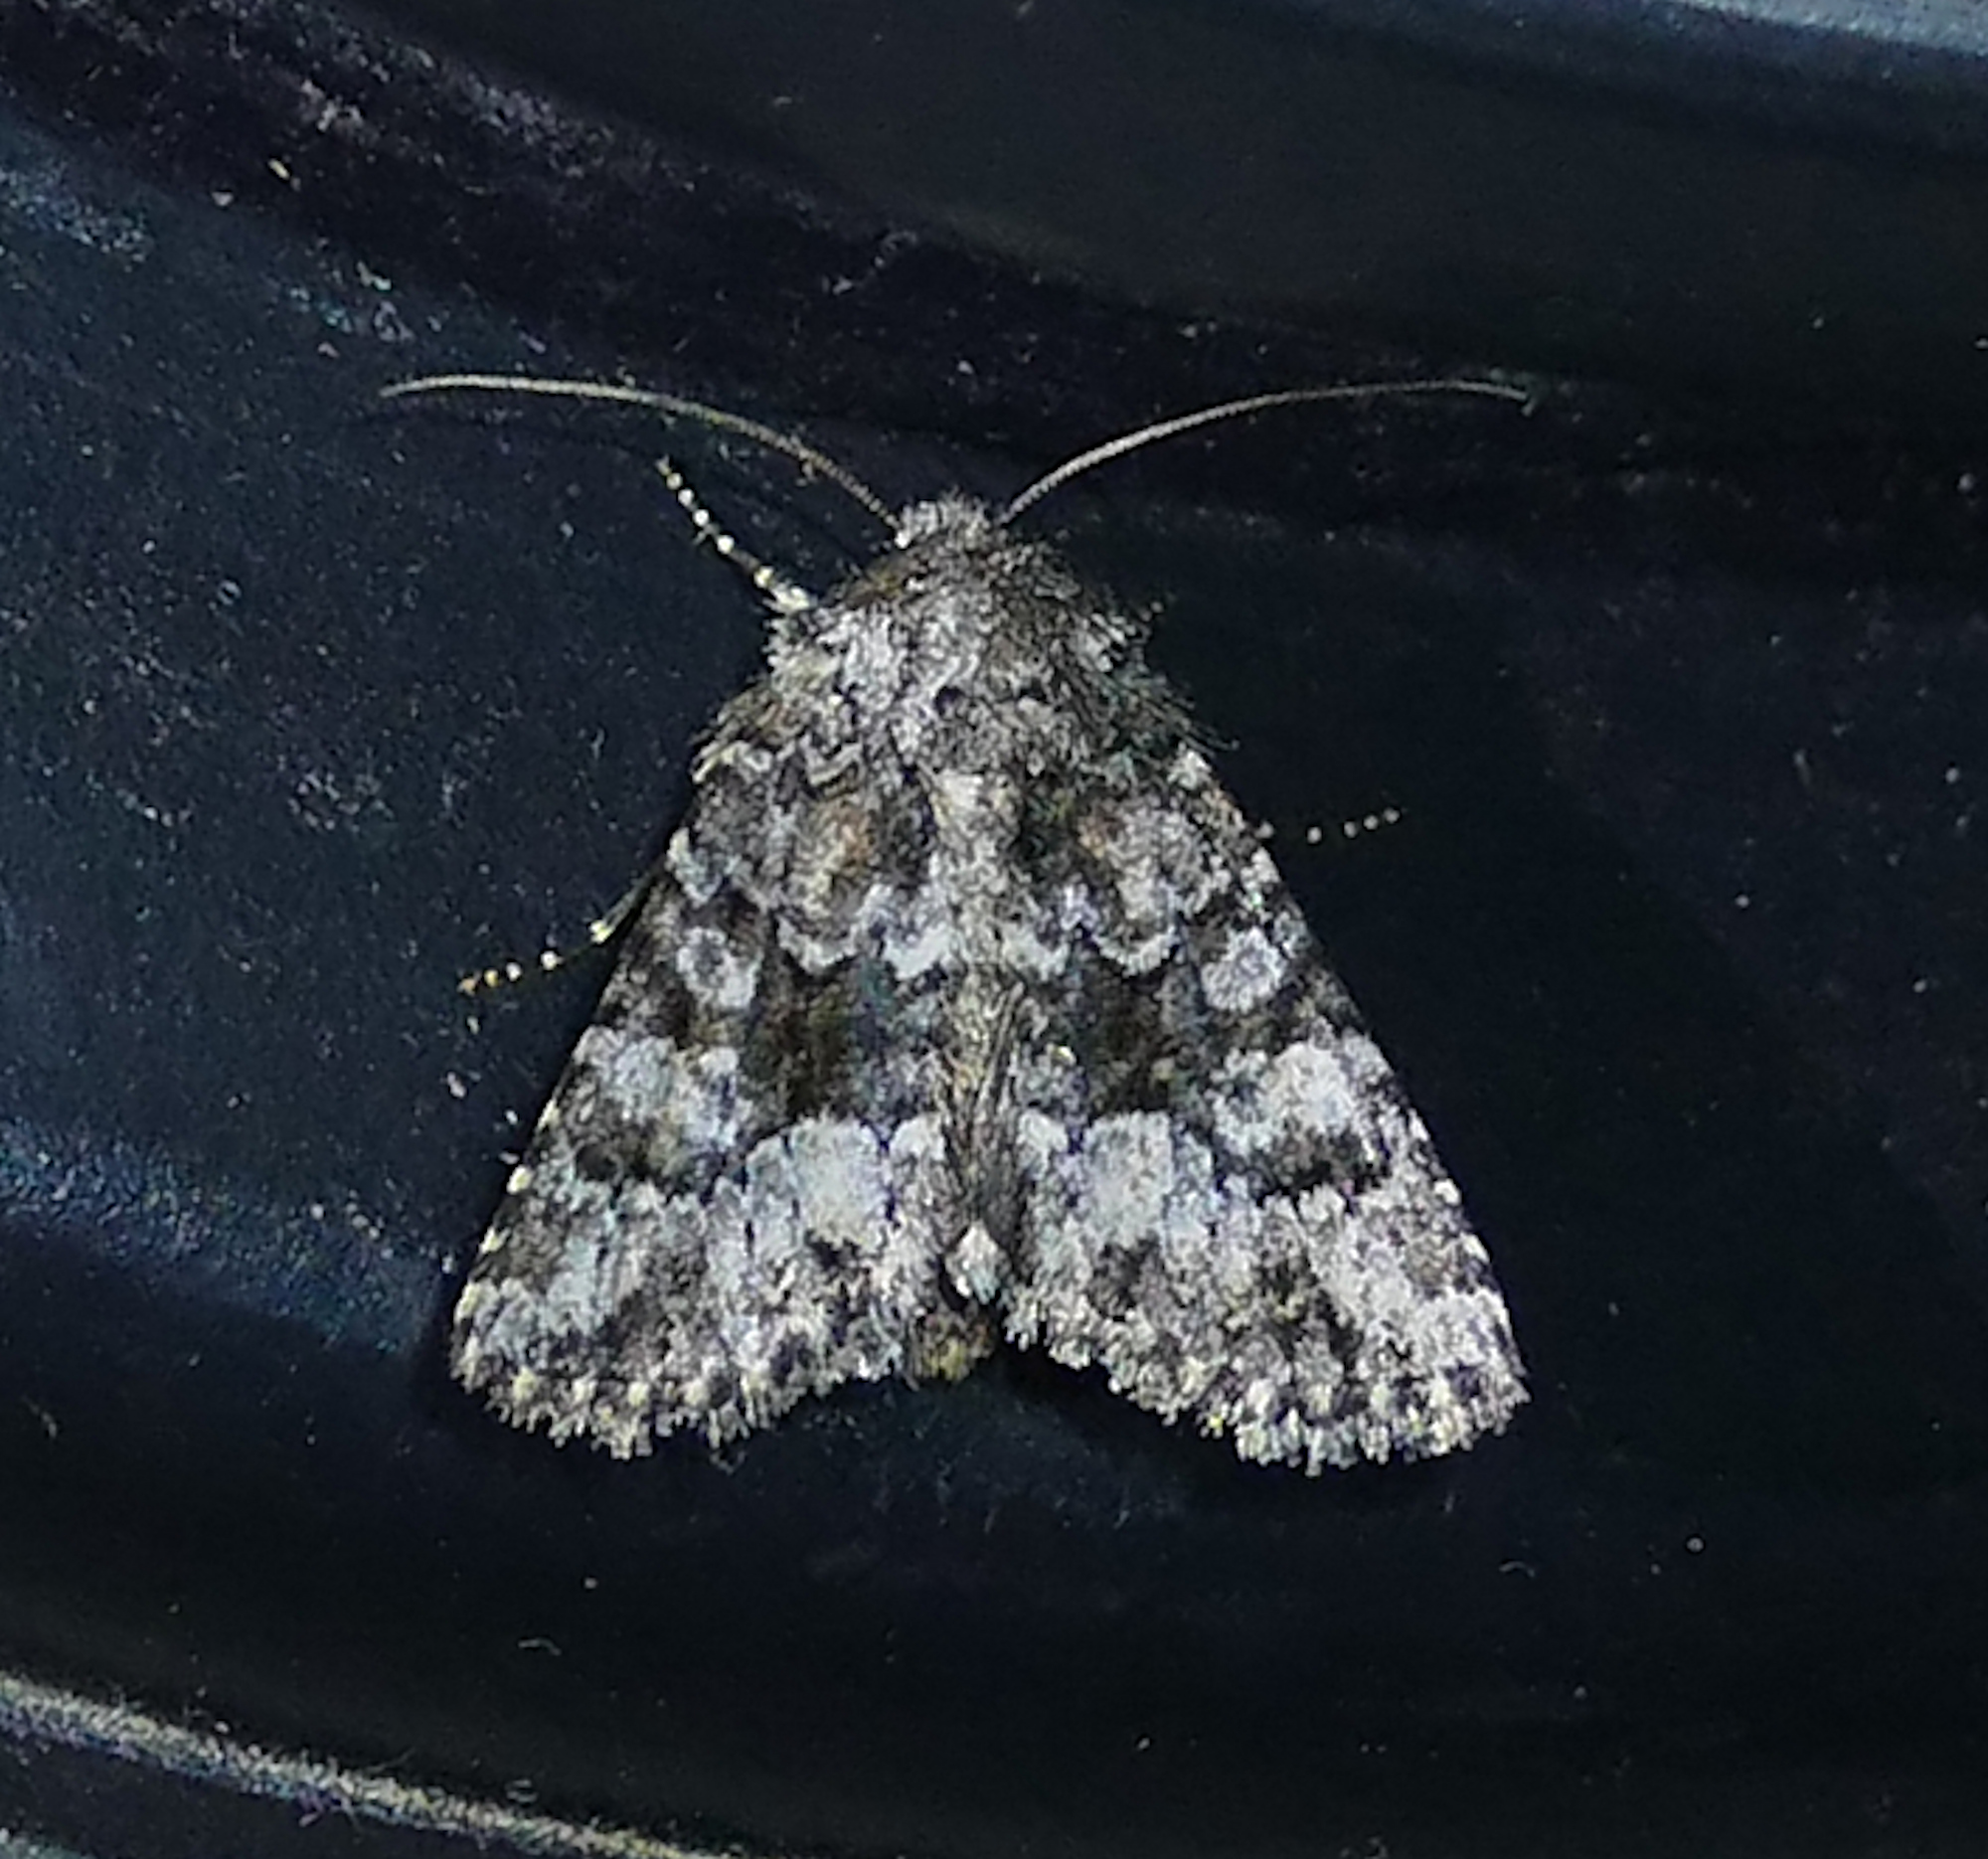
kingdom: Animalia
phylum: Arthropoda
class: Insecta
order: Lepidoptera
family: Noctuidae
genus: Pseudanarta
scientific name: Pseudanarta pulverulenta
